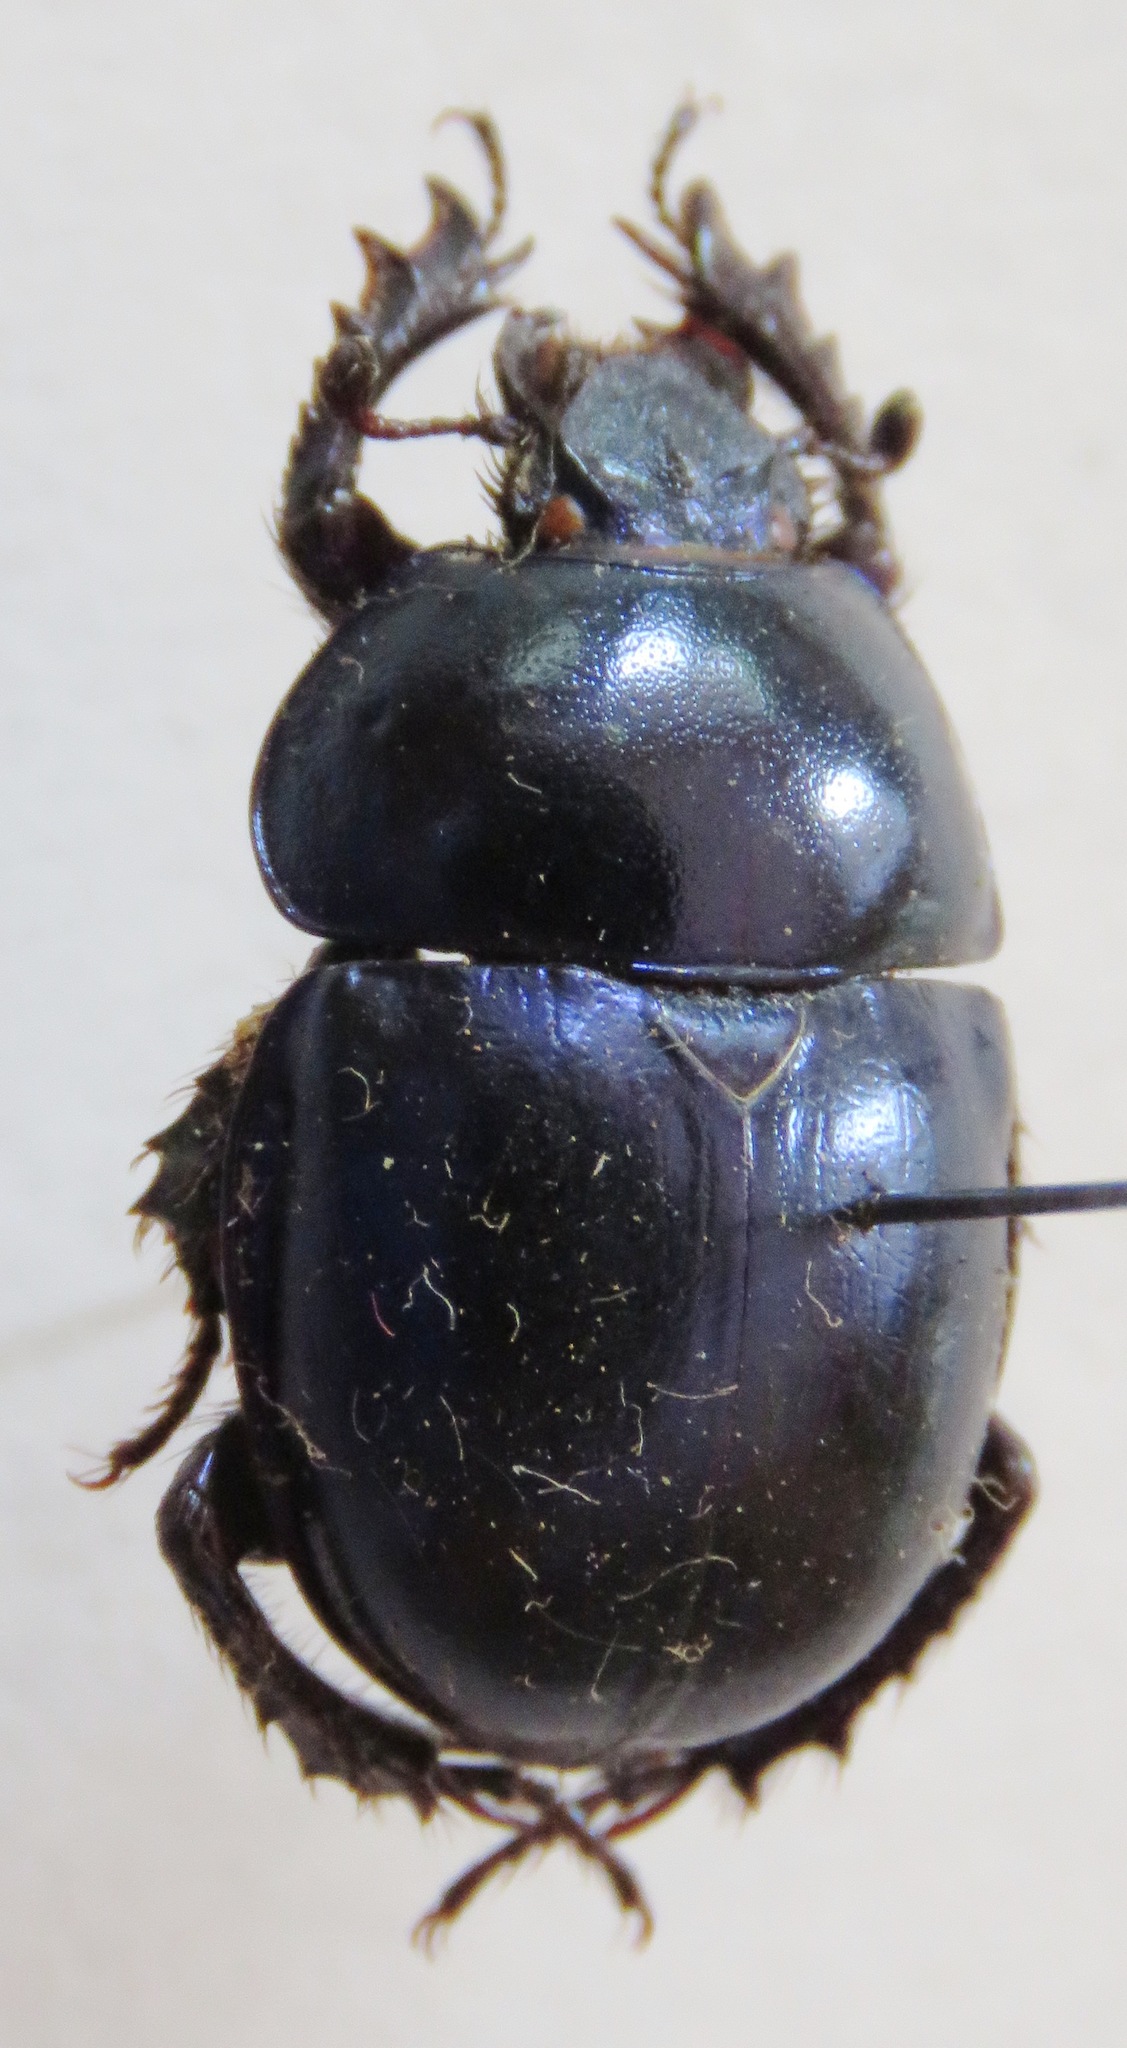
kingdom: Animalia
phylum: Arthropoda
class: Insecta
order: Coleoptera
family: Geotrupidae
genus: Trypocopris
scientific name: Trypocopris vernalis
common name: Spring dumbledor
